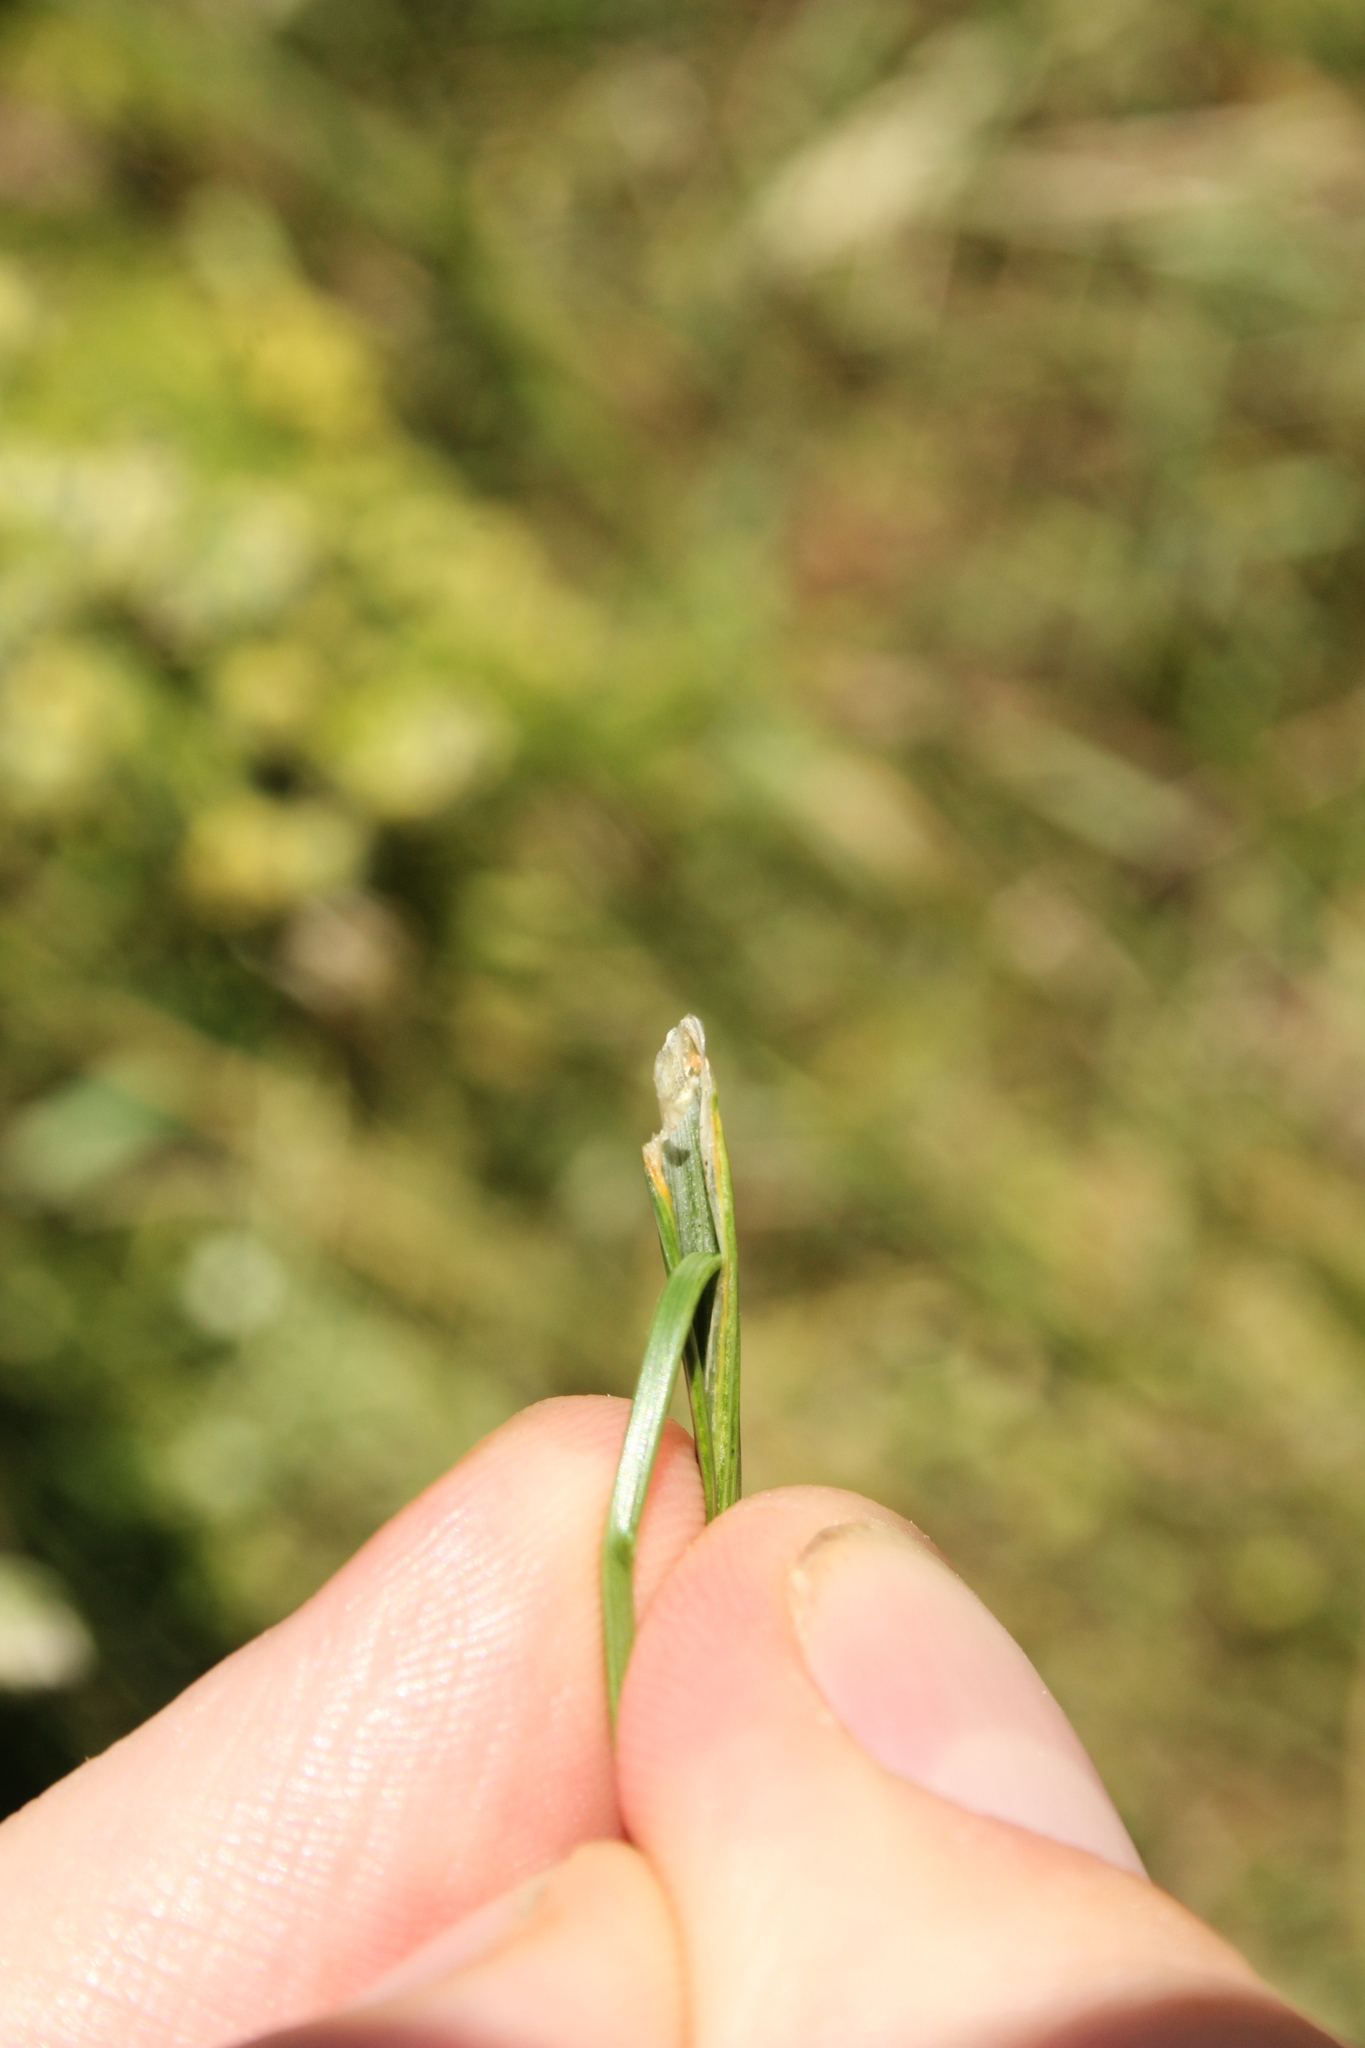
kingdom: Plantae
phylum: Tracheophyta
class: Liliopsida
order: Poales
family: Poaceae
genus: Cynosurus
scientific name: Cynosurus cristatus
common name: Crested dog's-tail
